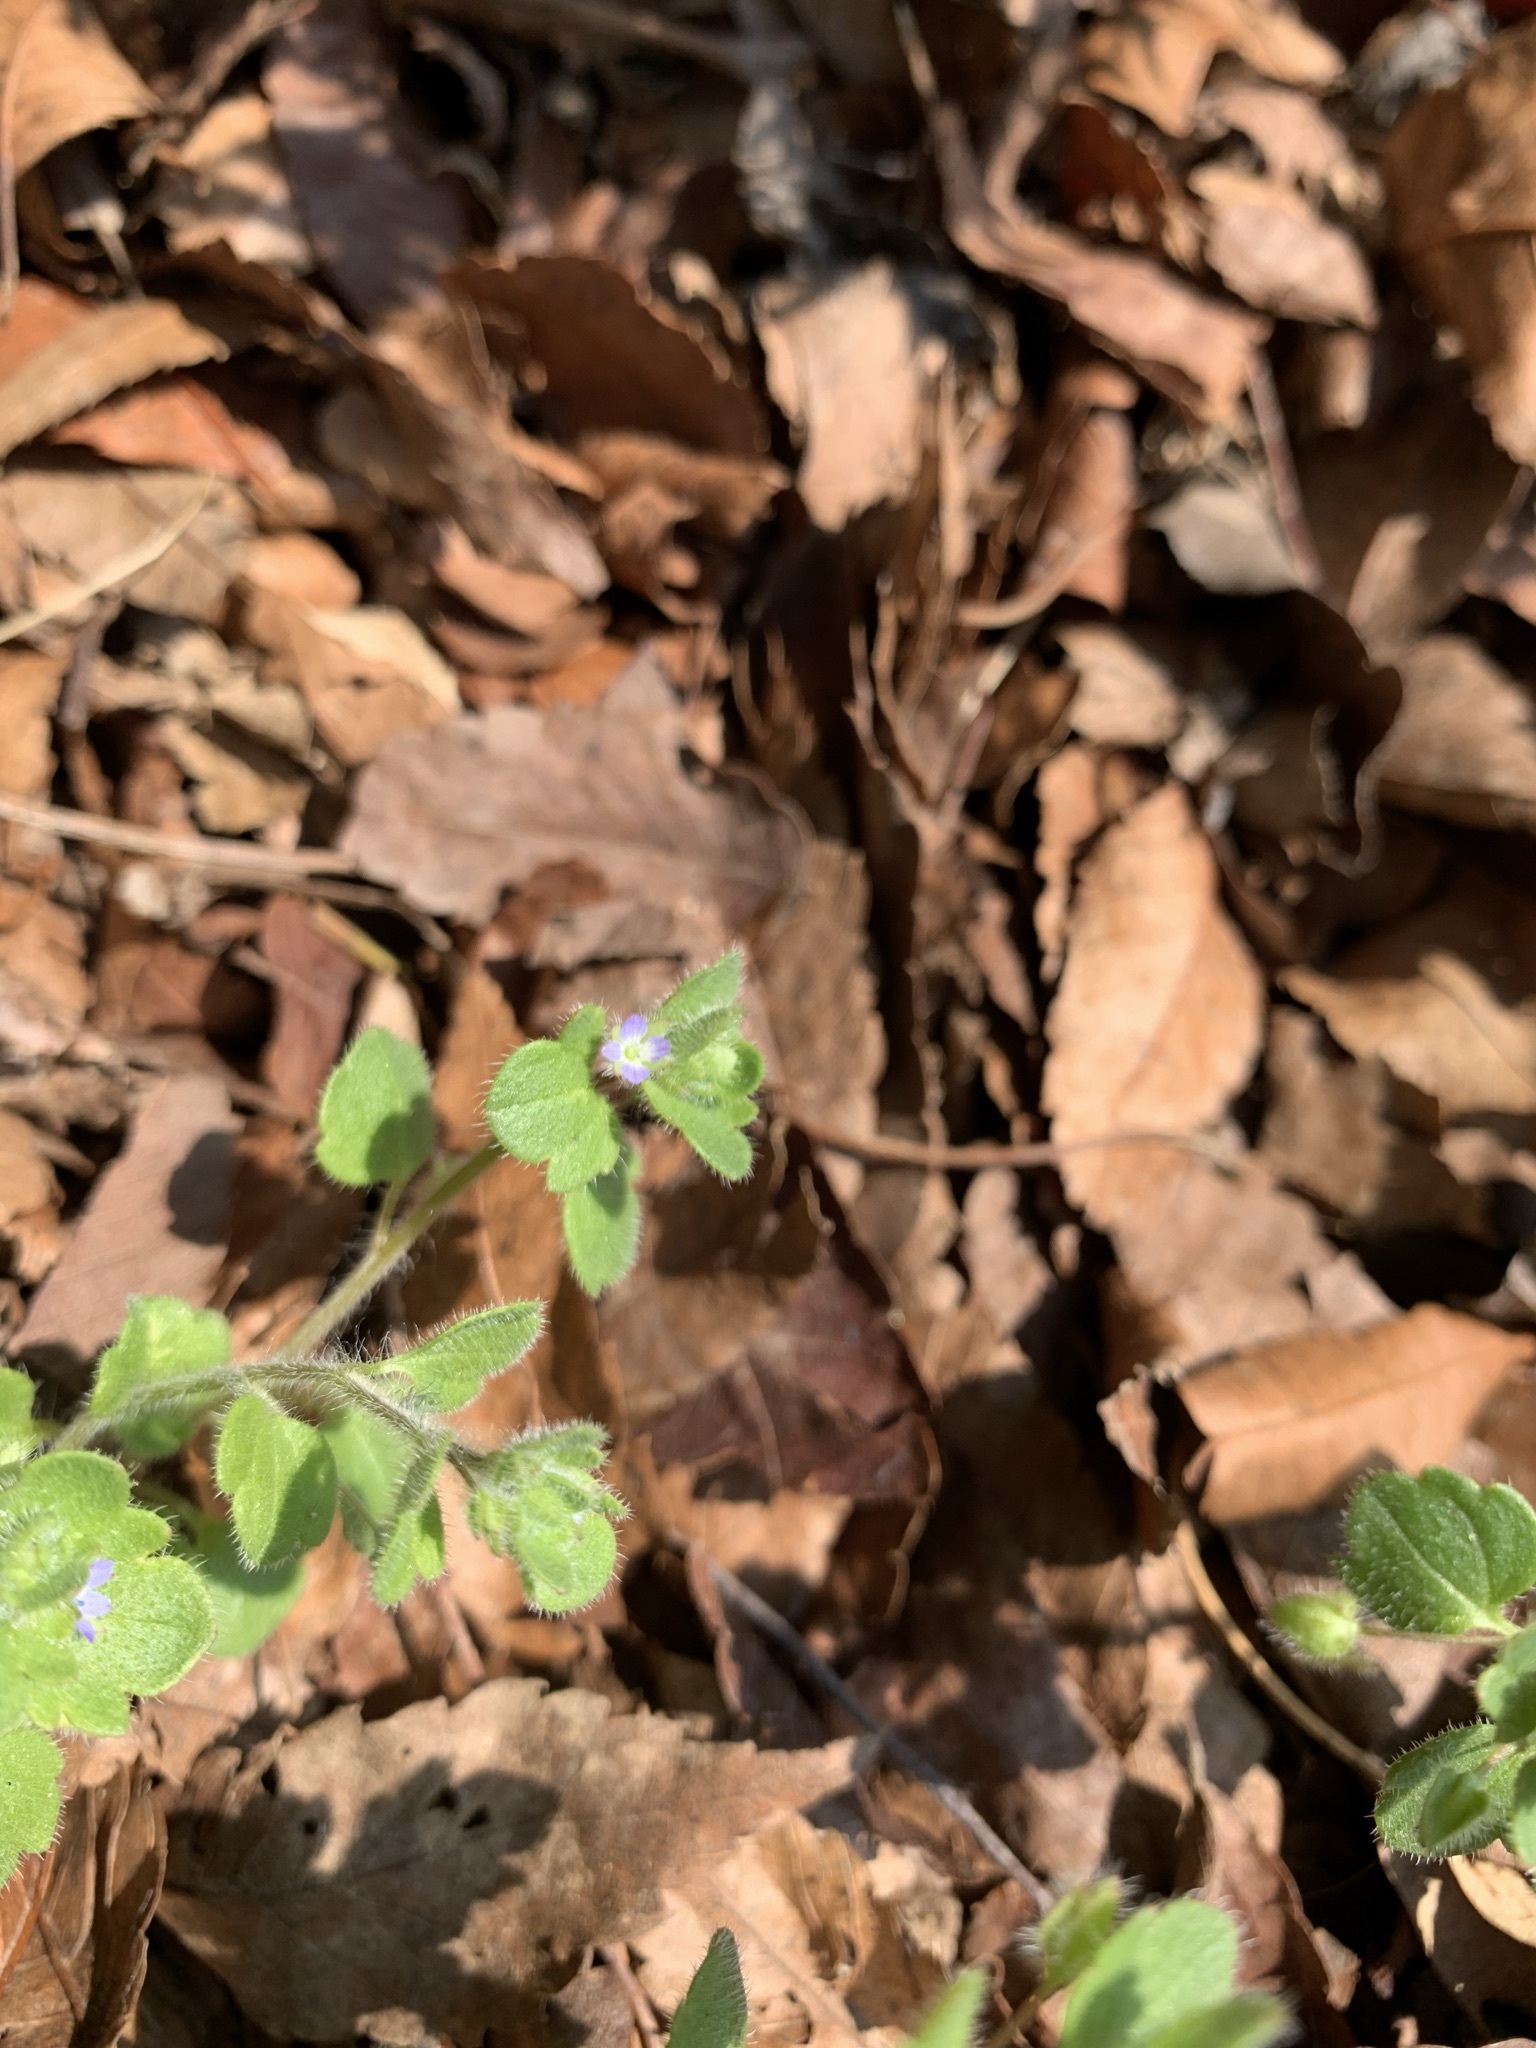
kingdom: Plantae
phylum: Tracheophyta
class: Magnoliopsida
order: Lamiales
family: Plantaginaceae
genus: Veronica
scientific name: Veronica hederifolia
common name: Ivy-leaved speedwell
